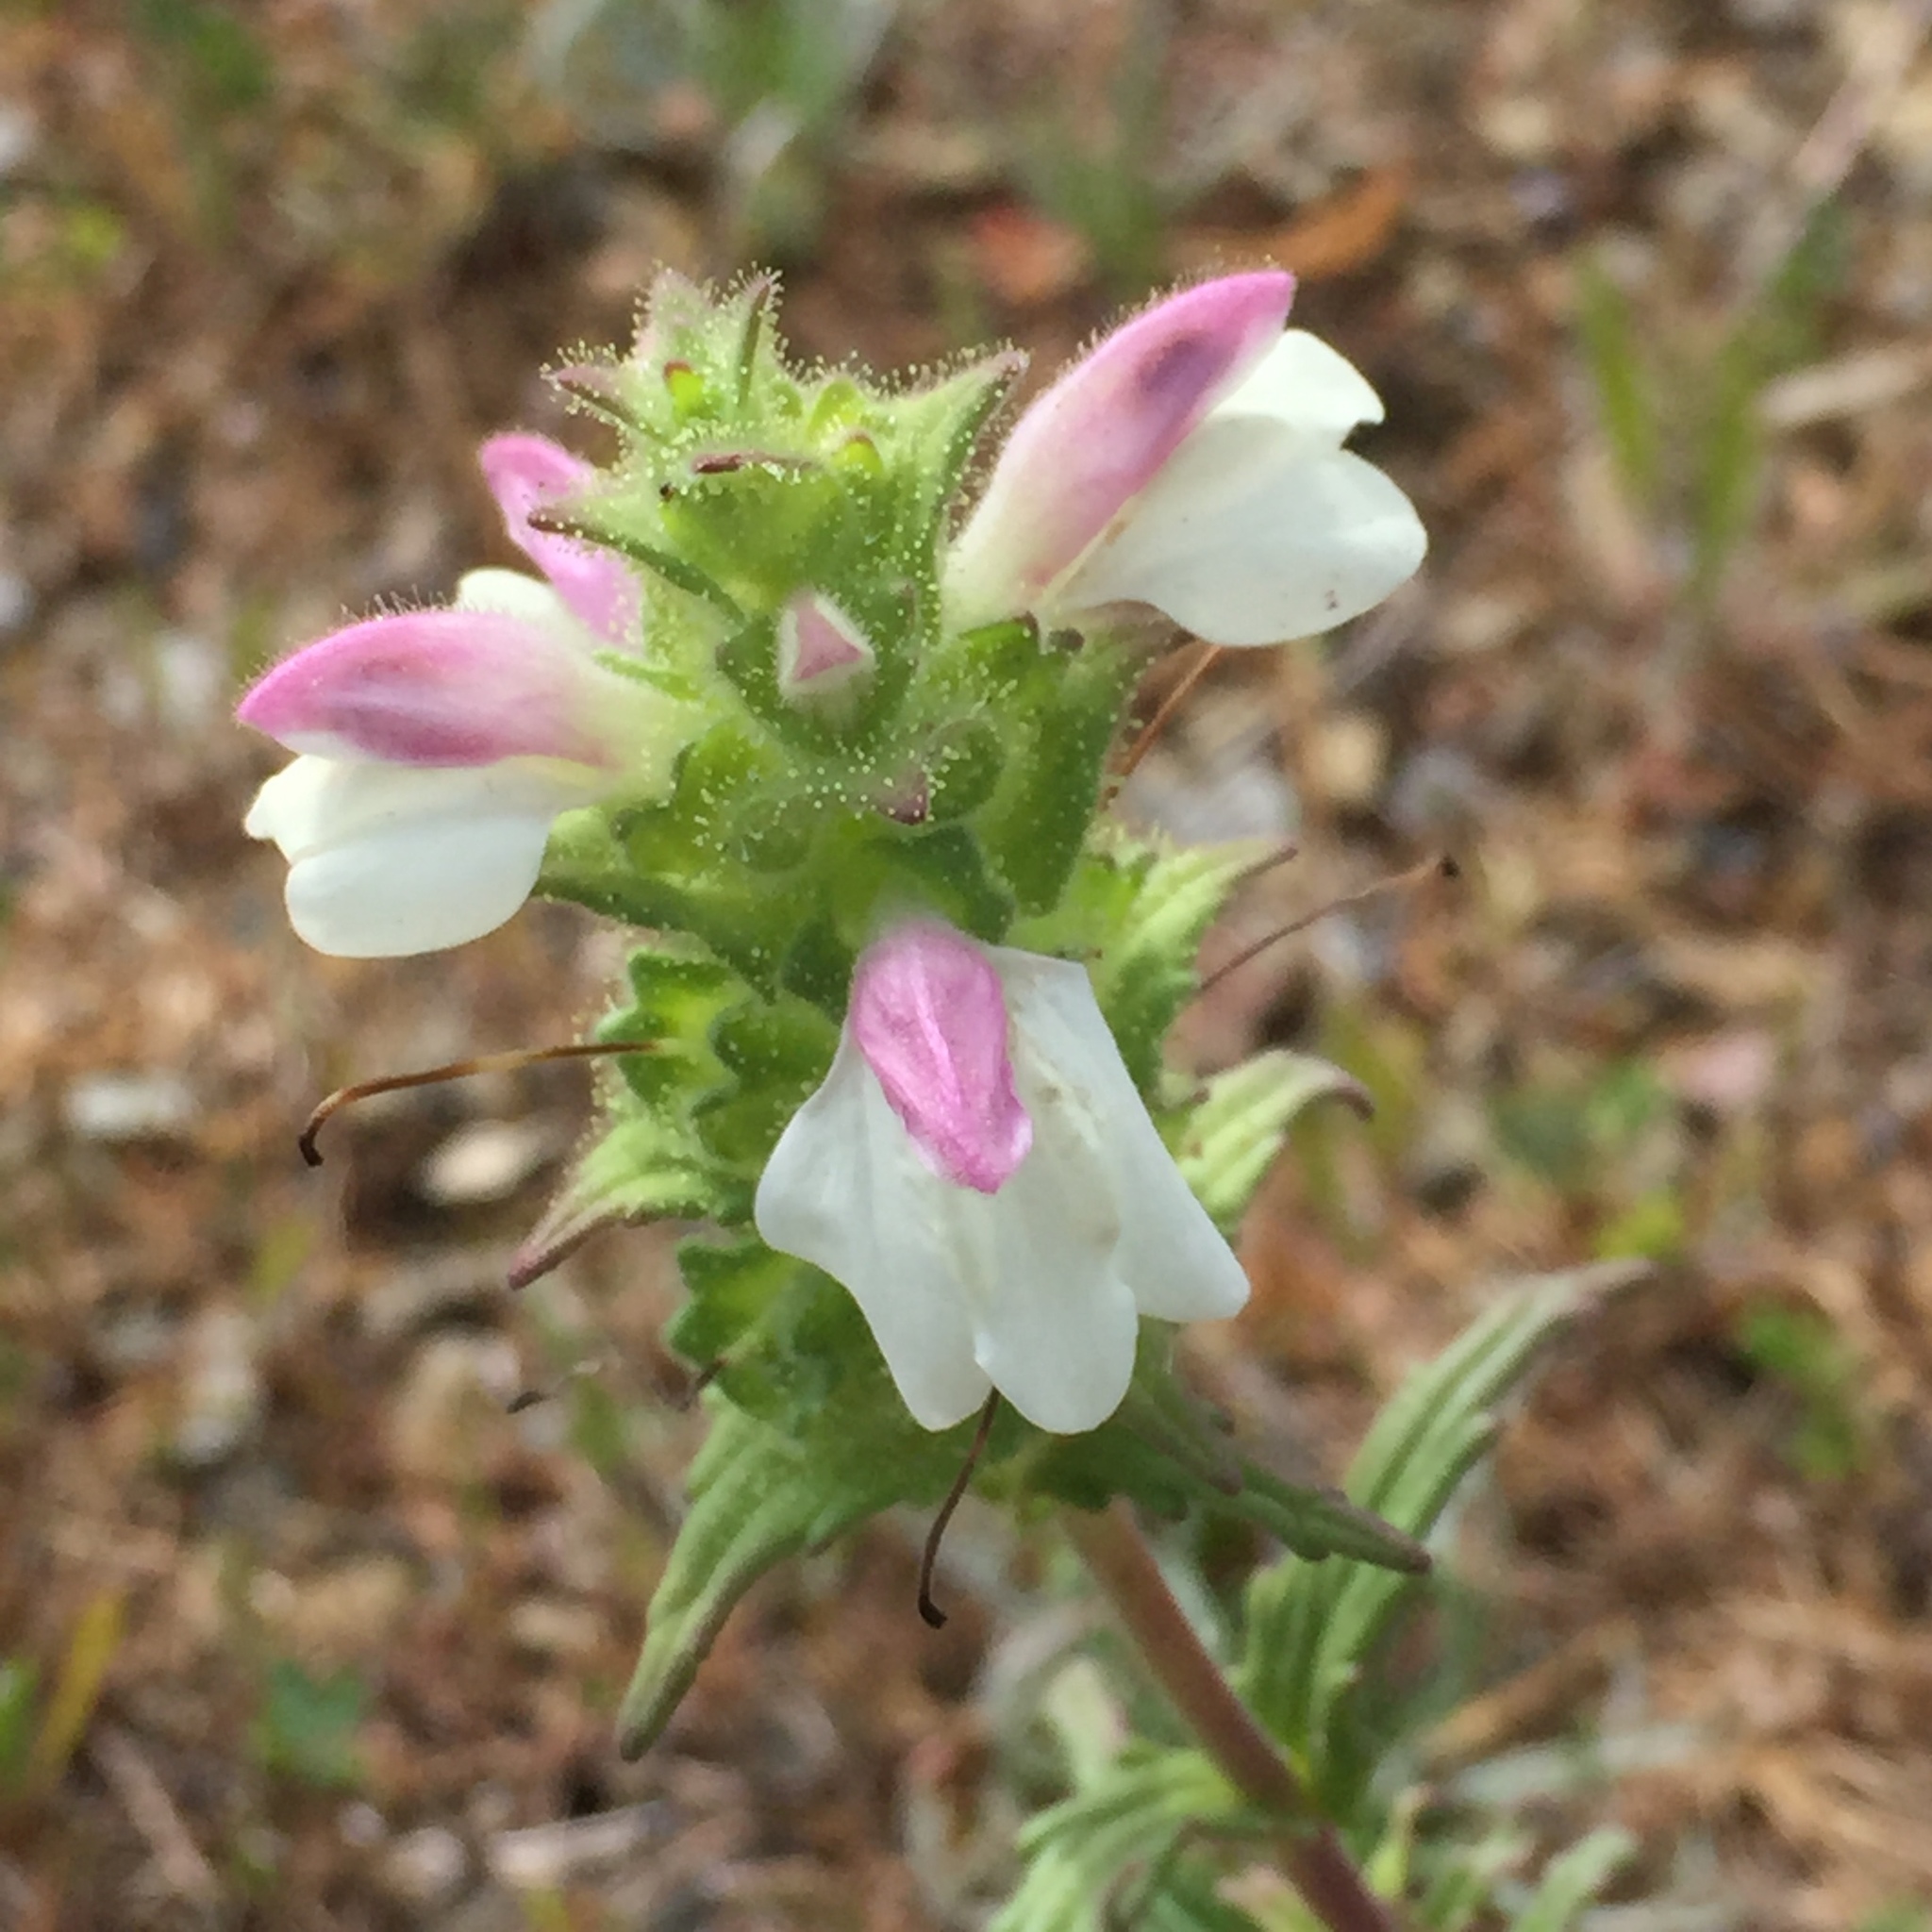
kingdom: Plantae
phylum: Tracheophyta
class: Magnoliopsida
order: Lamiales
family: Orobanchaceae
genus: Bellardia
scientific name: Bellardia trixago
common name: Mediterranean lineseed
